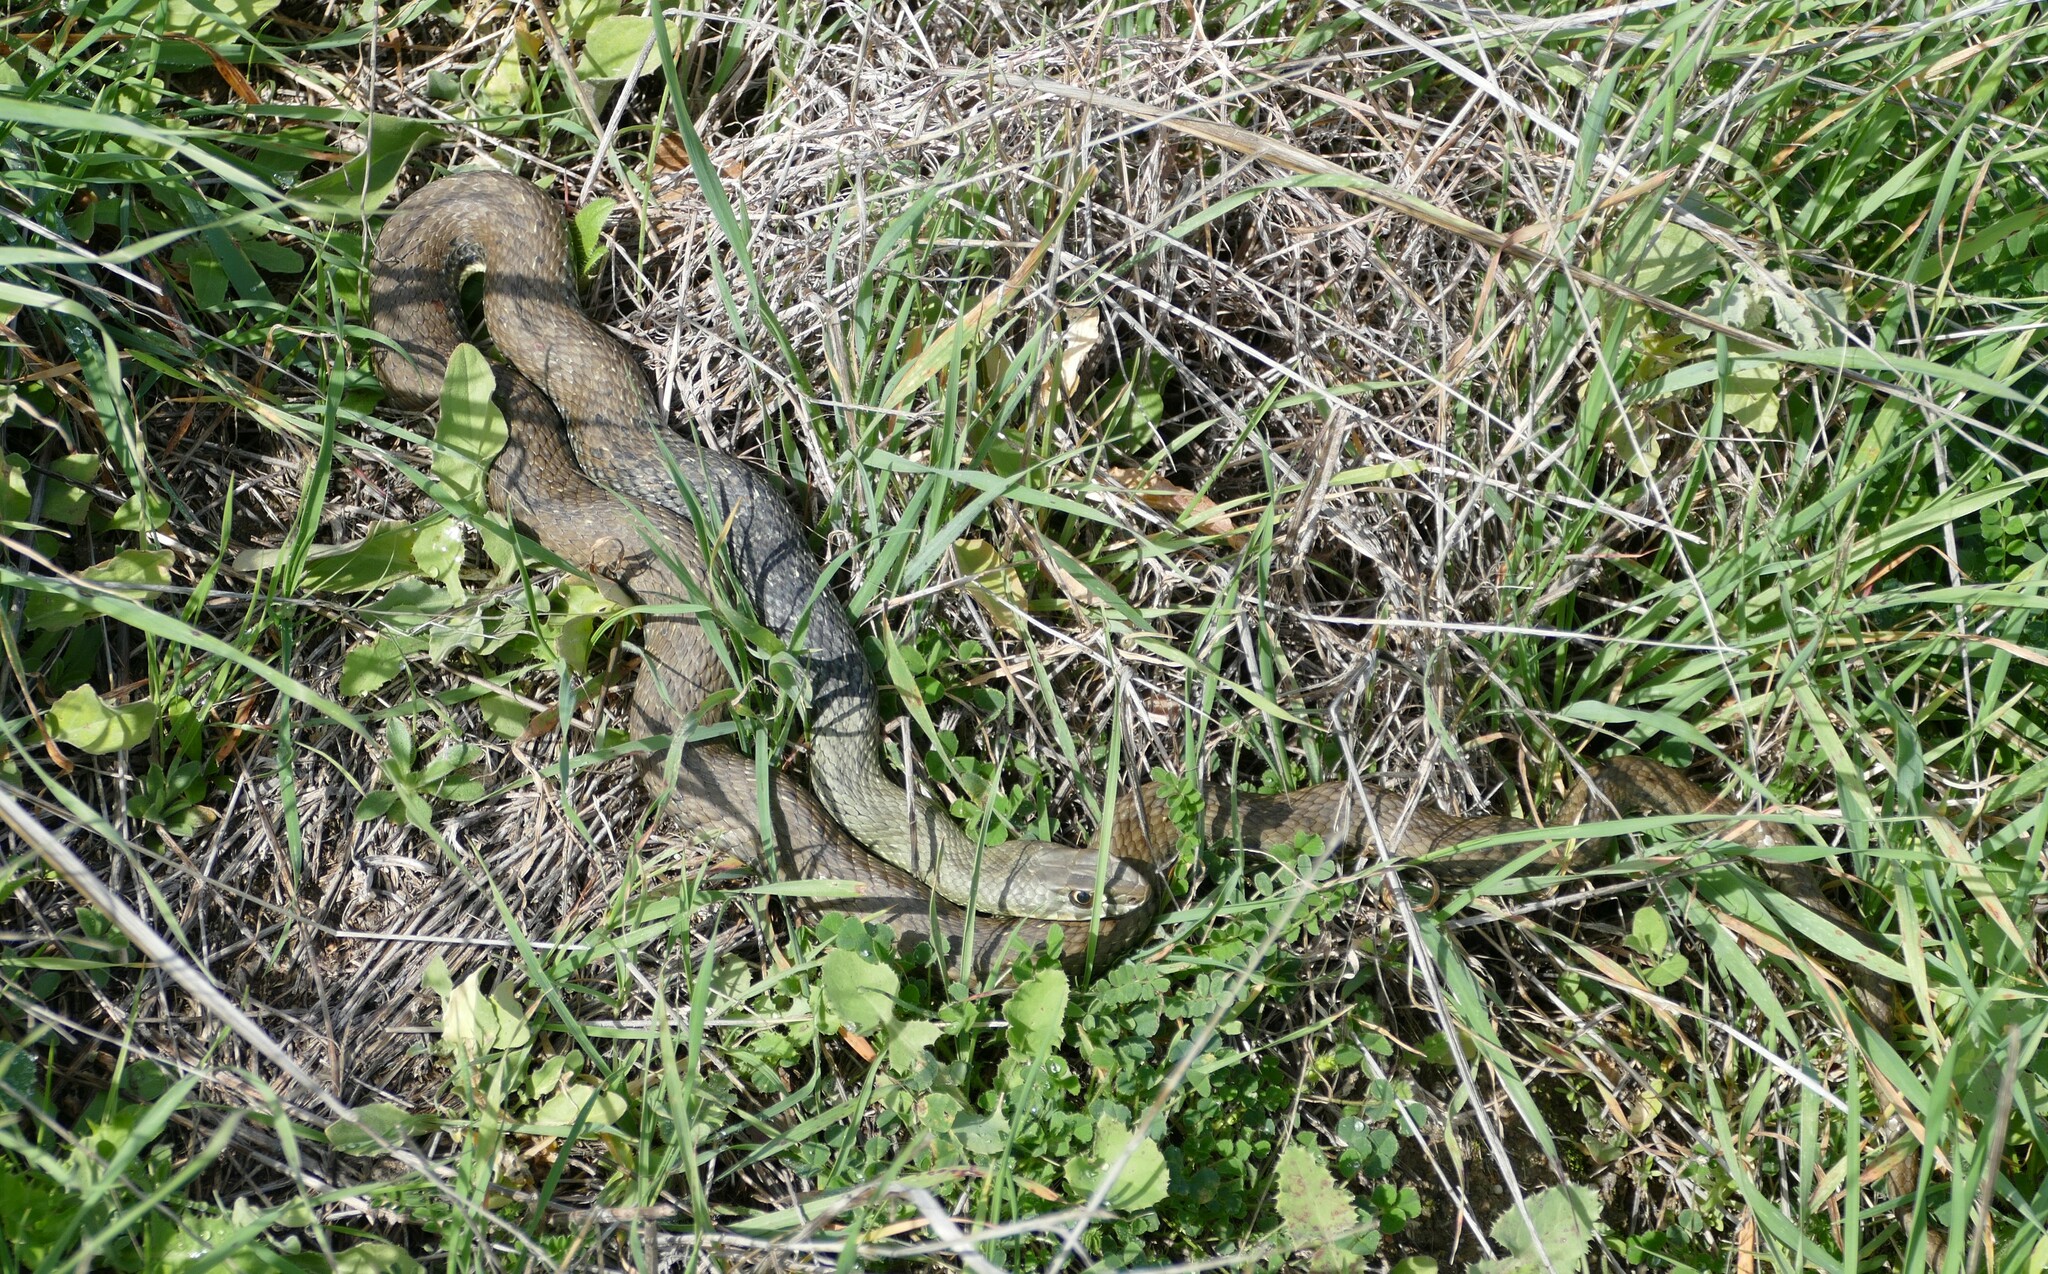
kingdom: Animalia
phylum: Chordata
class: Squamata
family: Psammophiidae
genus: Malpolon
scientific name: Malpolon monspessulanus
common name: Montpellier snake
